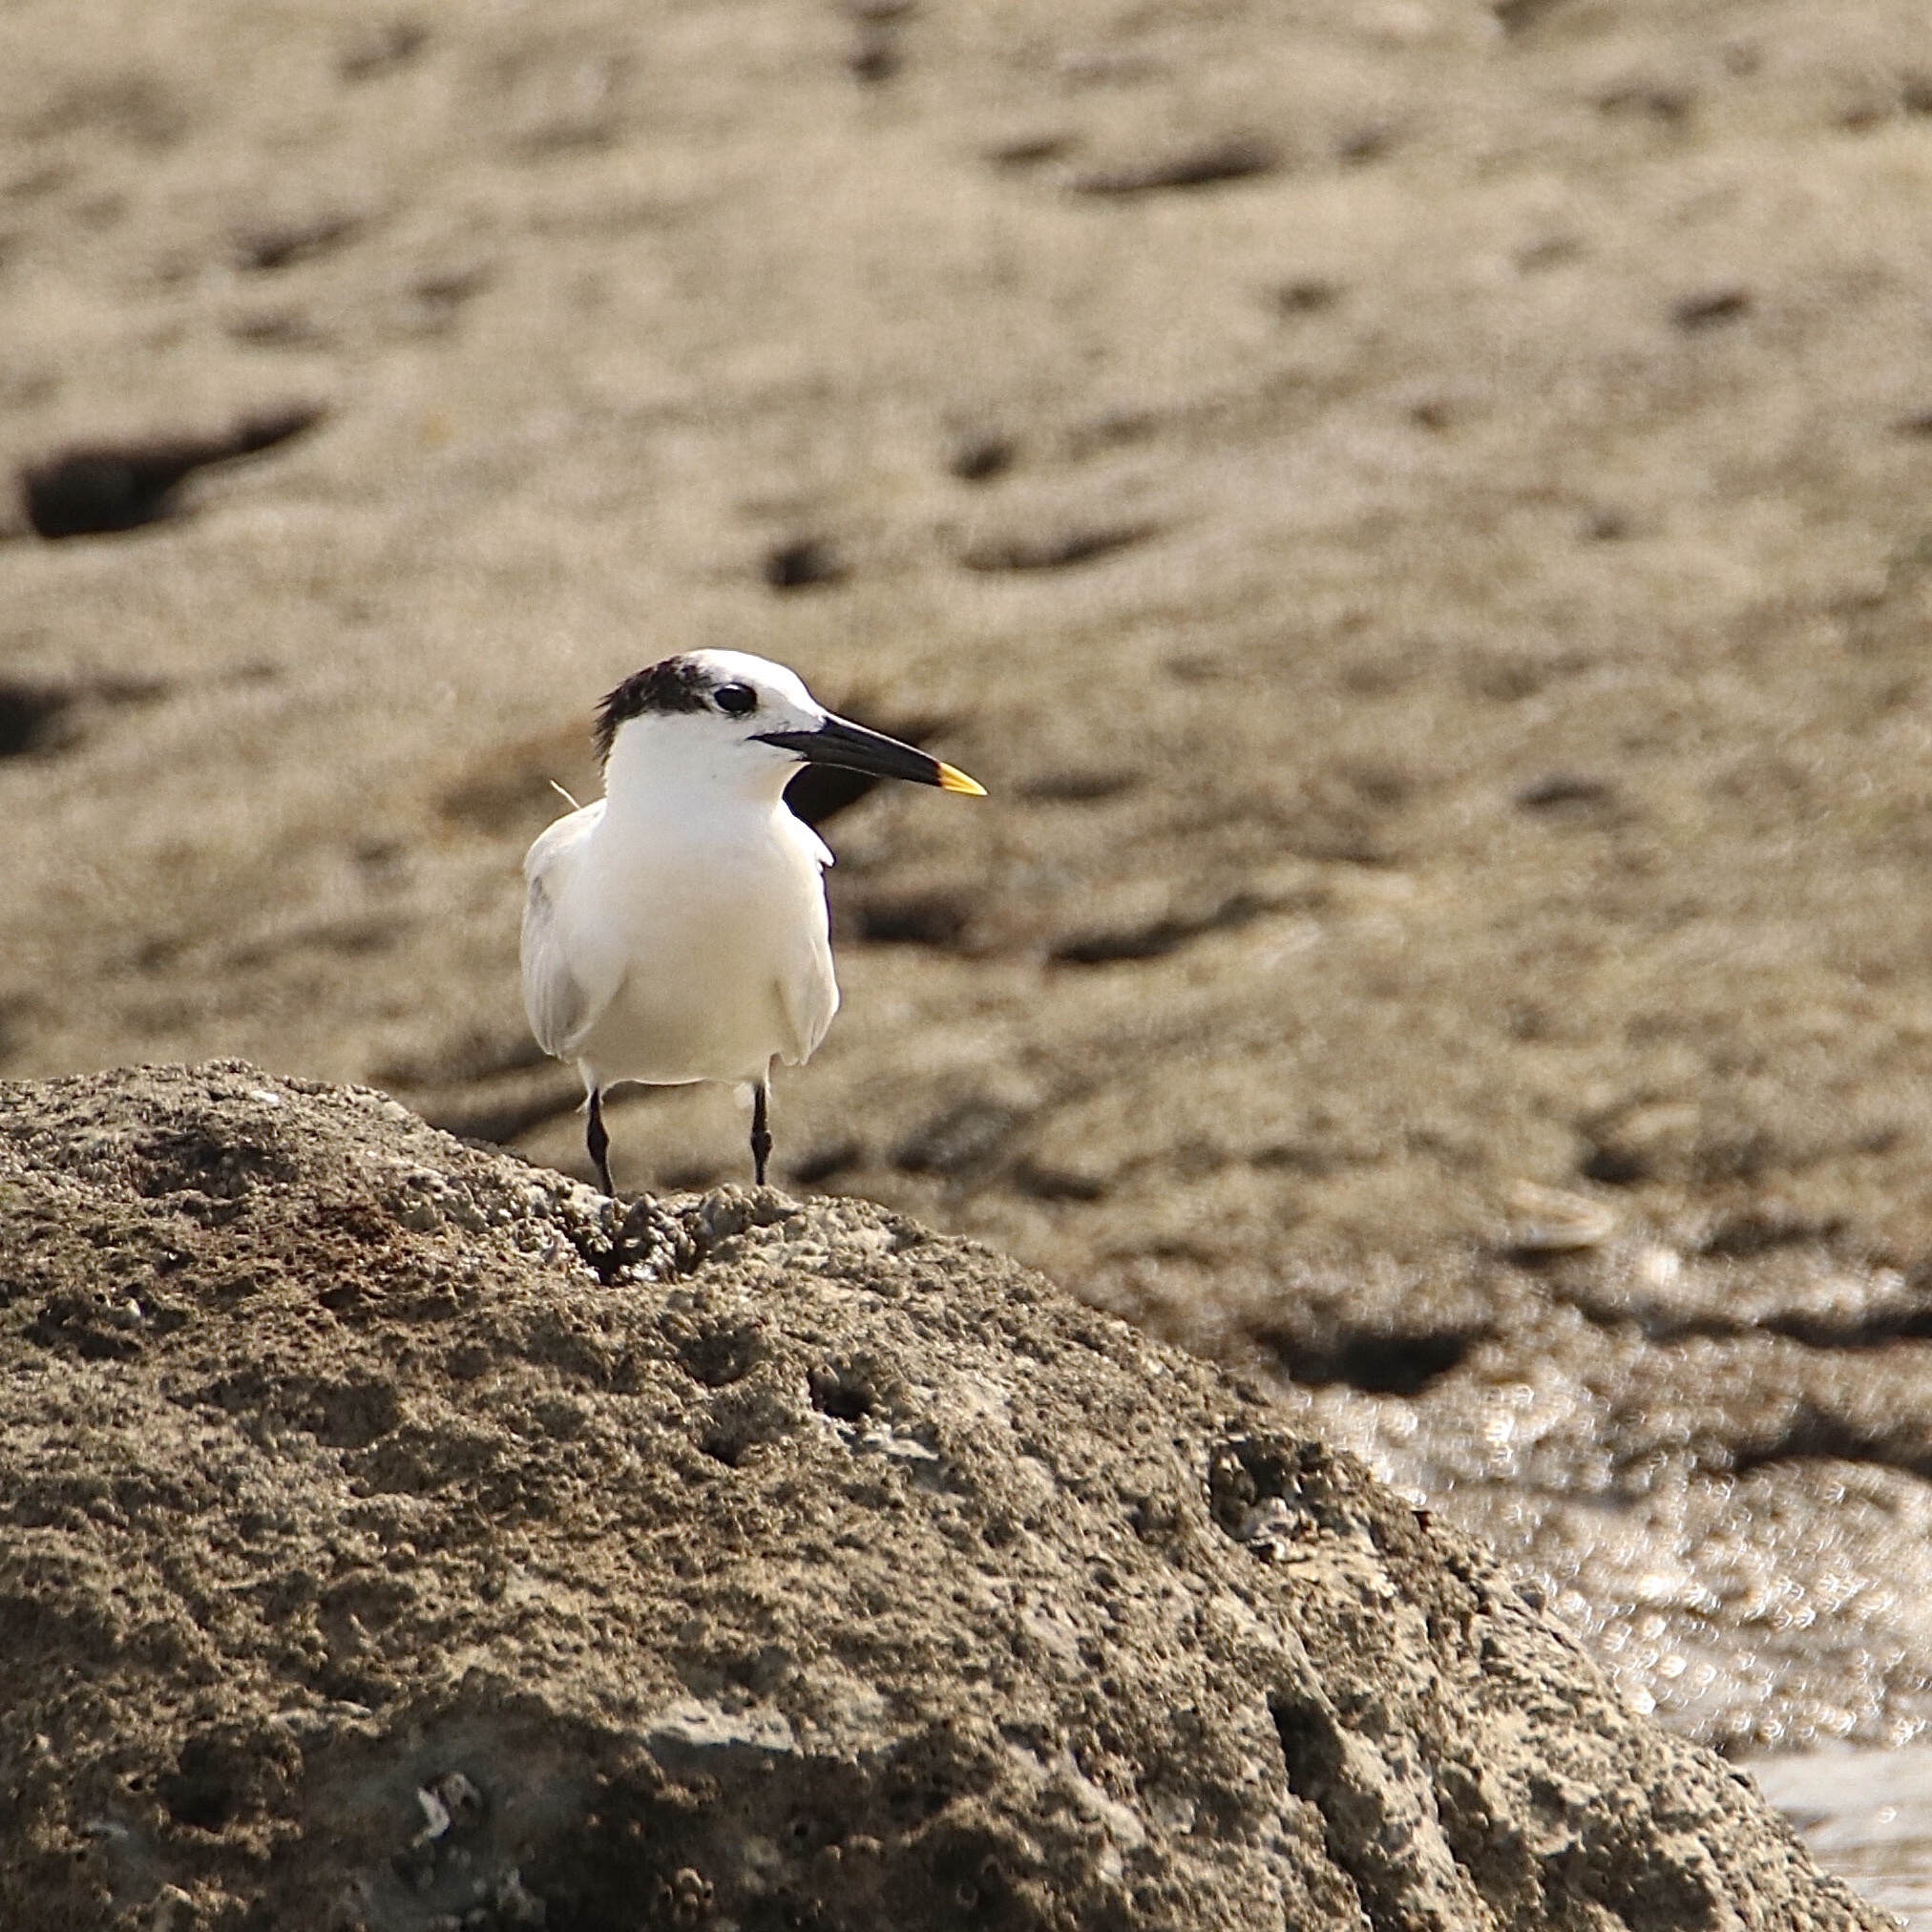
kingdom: Animalia
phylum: Chordata
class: Aves
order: Charadriiformes
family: Laridae
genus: Thalasseus
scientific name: Thalasseus sandvicensis
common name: Sandwich tern
